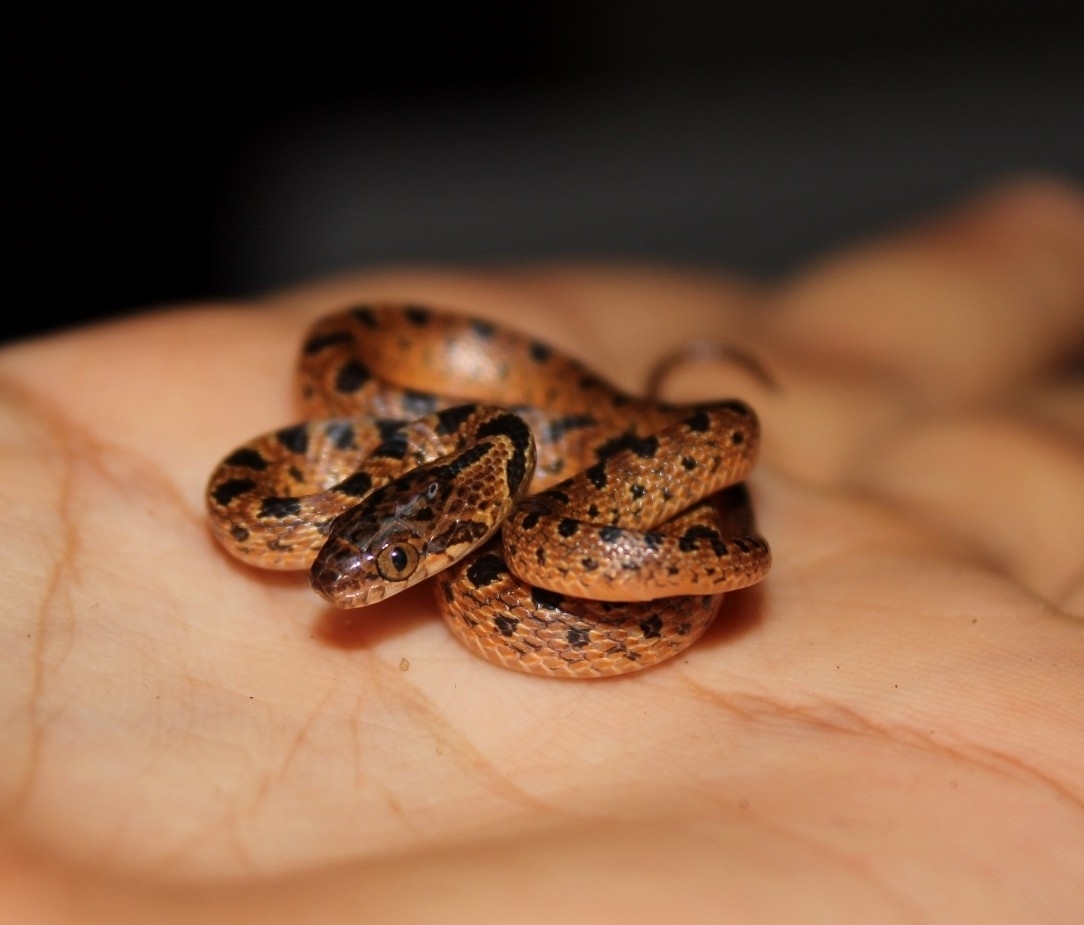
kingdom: Animalia
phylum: Chordata
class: Squamata
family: Colubridae
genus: Leptodeira
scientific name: Leptodeira rhombifera
